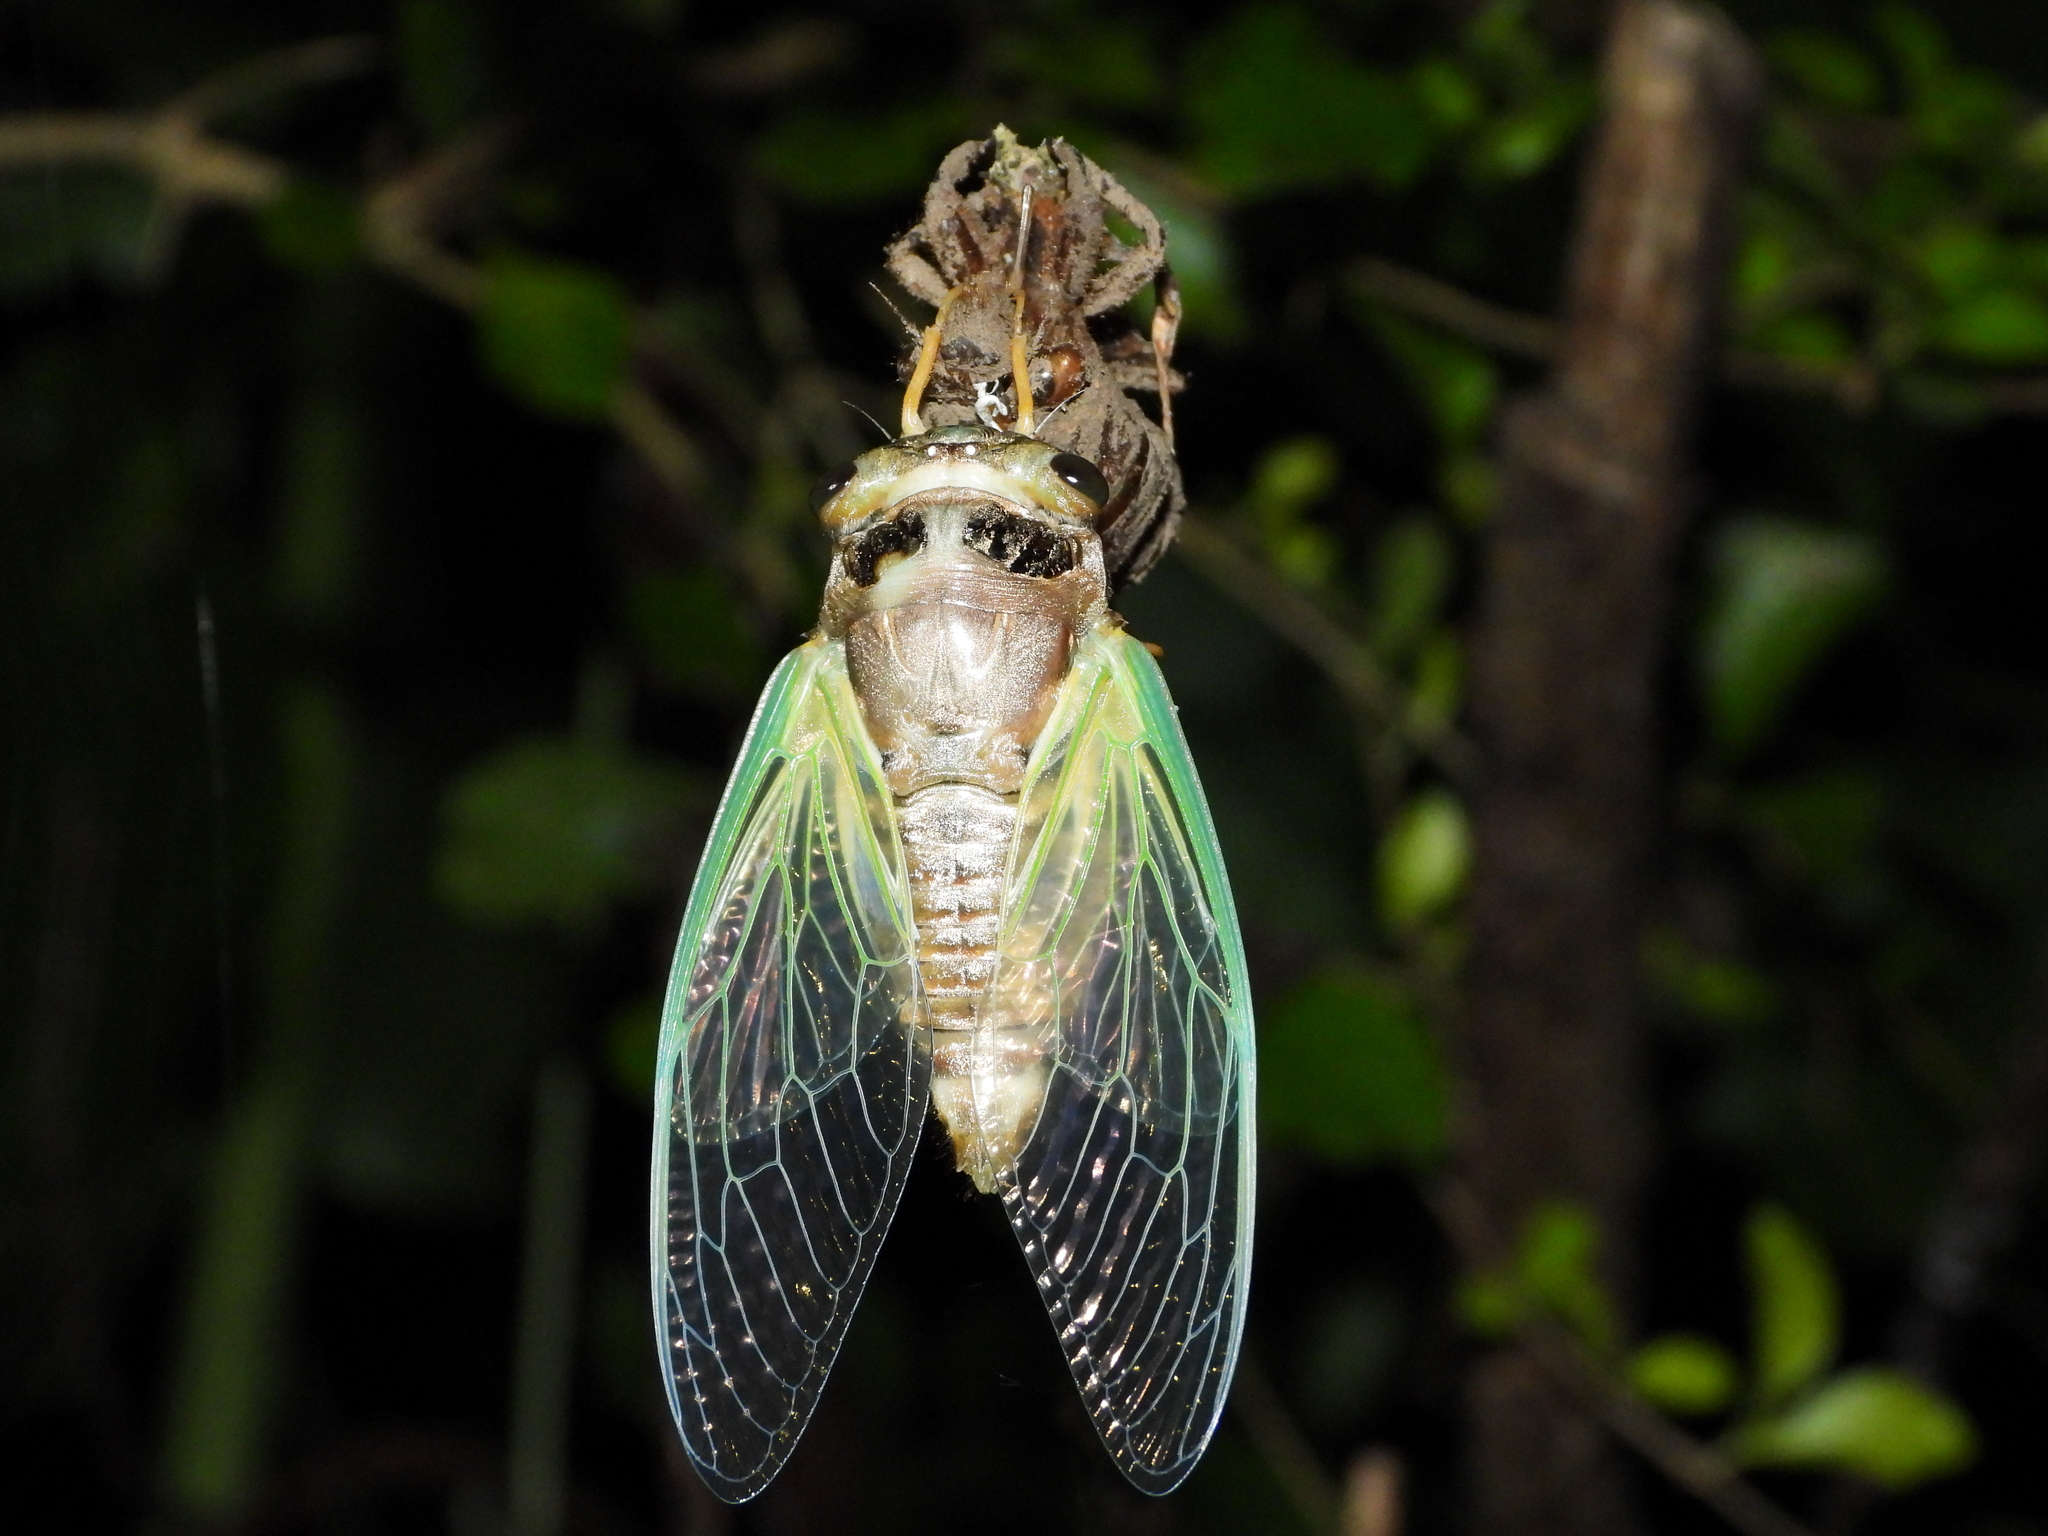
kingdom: Animalia
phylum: Arthropoda
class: Insecta
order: Hemiptera
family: Cicadidae
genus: Cryptotympana
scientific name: Cryptotympana takasagona
